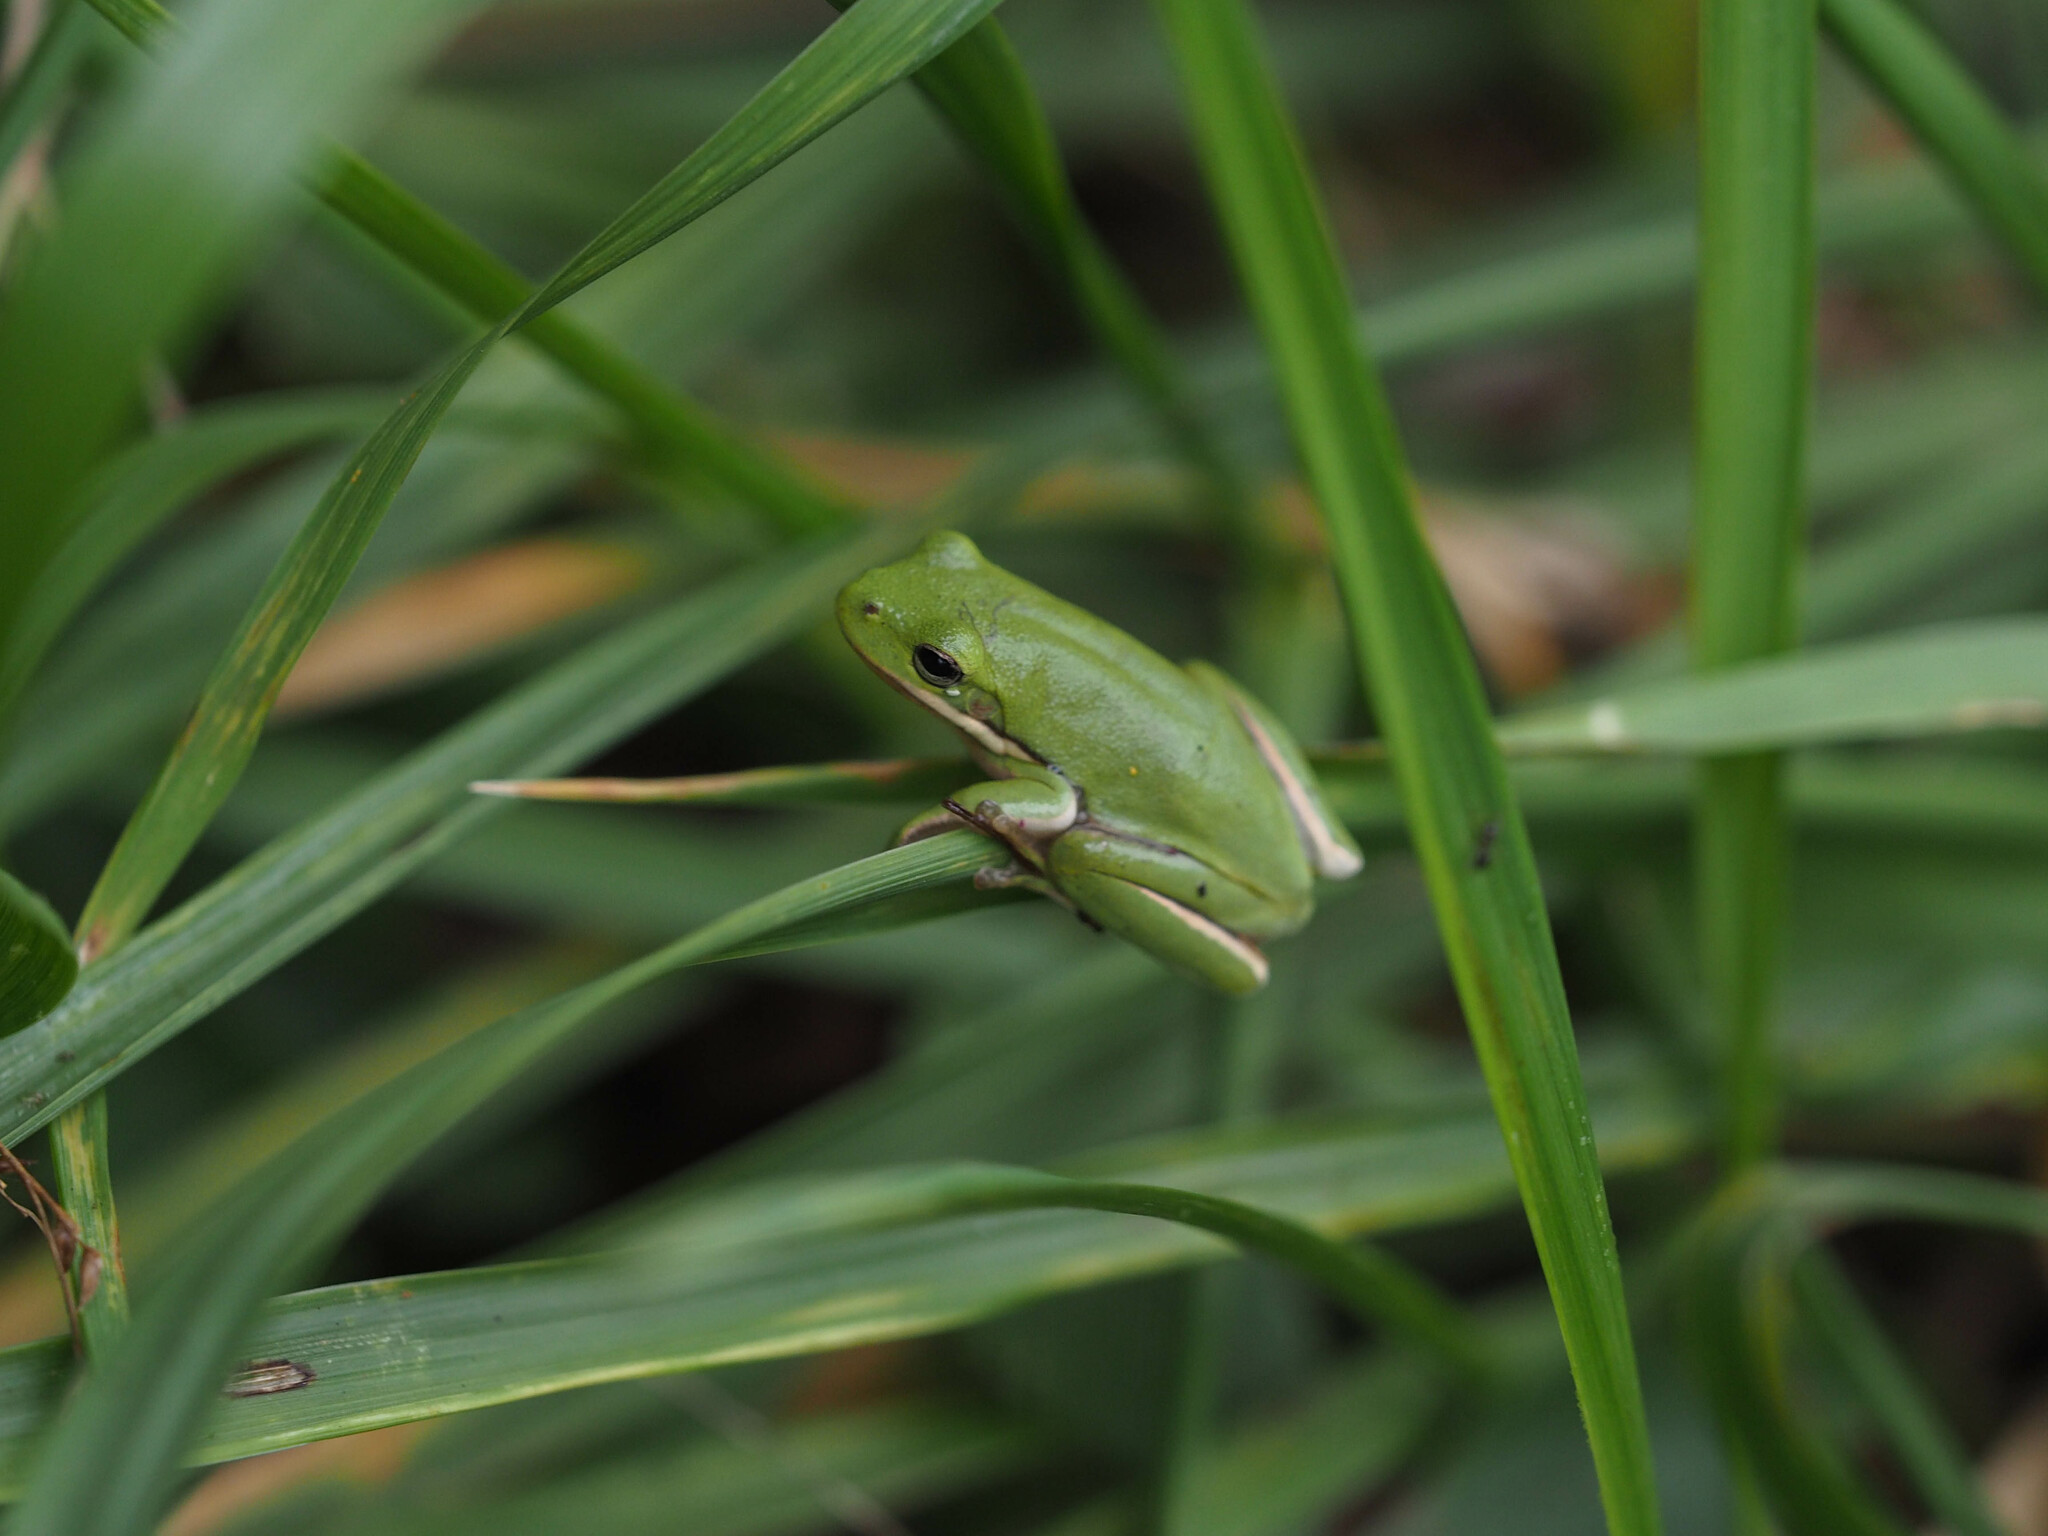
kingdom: Animalia
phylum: Chordata
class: Amphibia
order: Anura
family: Hylidae
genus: Dryophytes
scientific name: Dryophytes cinereus
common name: Green treefrog
